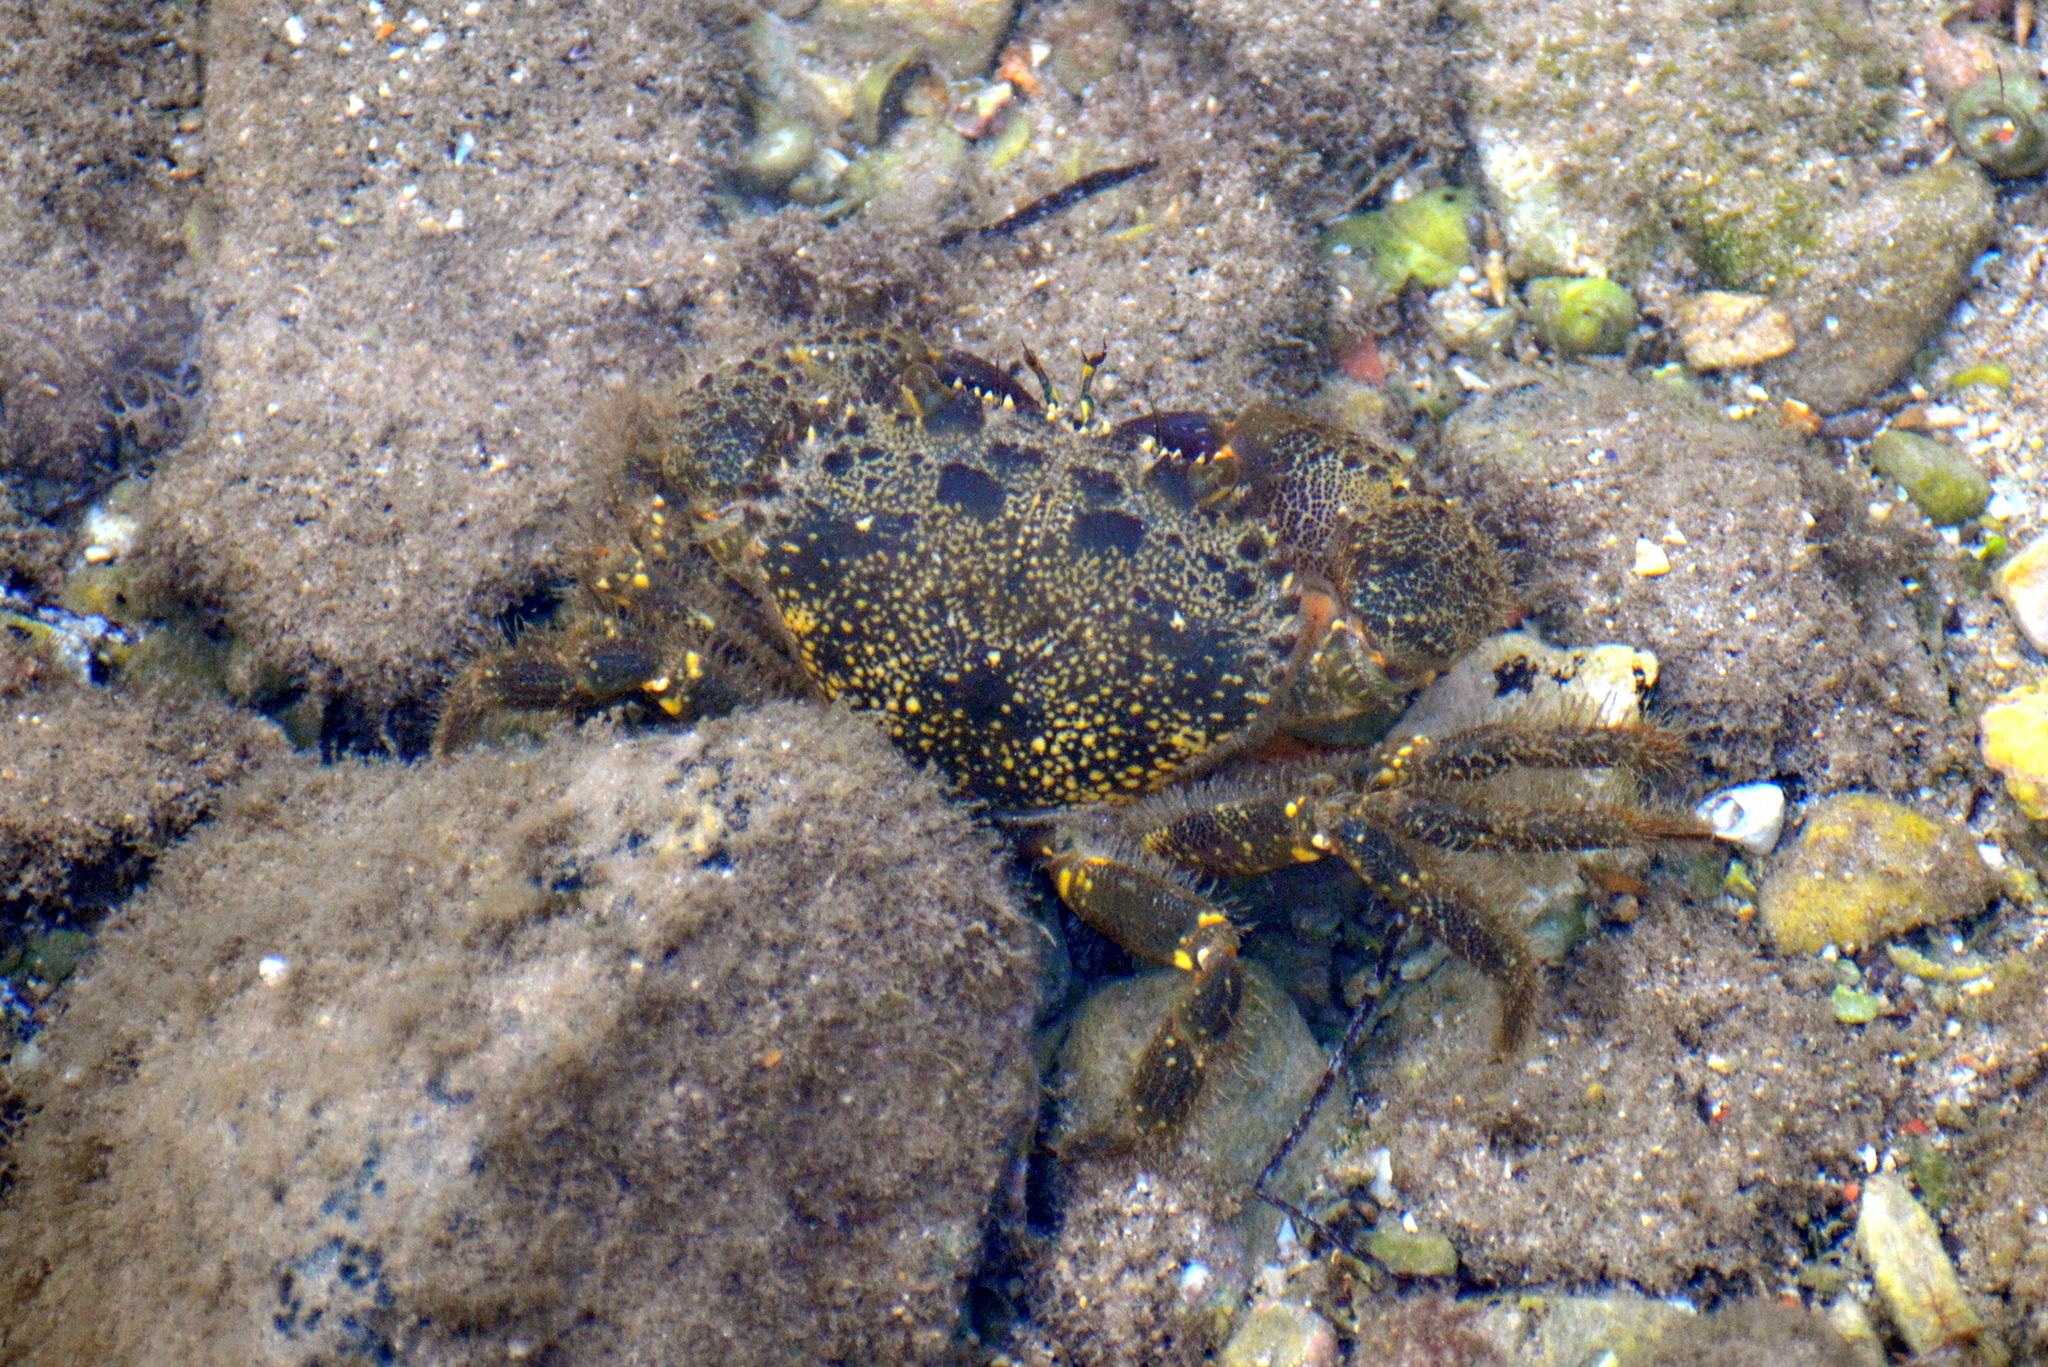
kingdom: Animalia
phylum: Arthropoda
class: Malacostraca
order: Decapoda
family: Eriphiidae
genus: Eriphia
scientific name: Eriphia verrucosa
